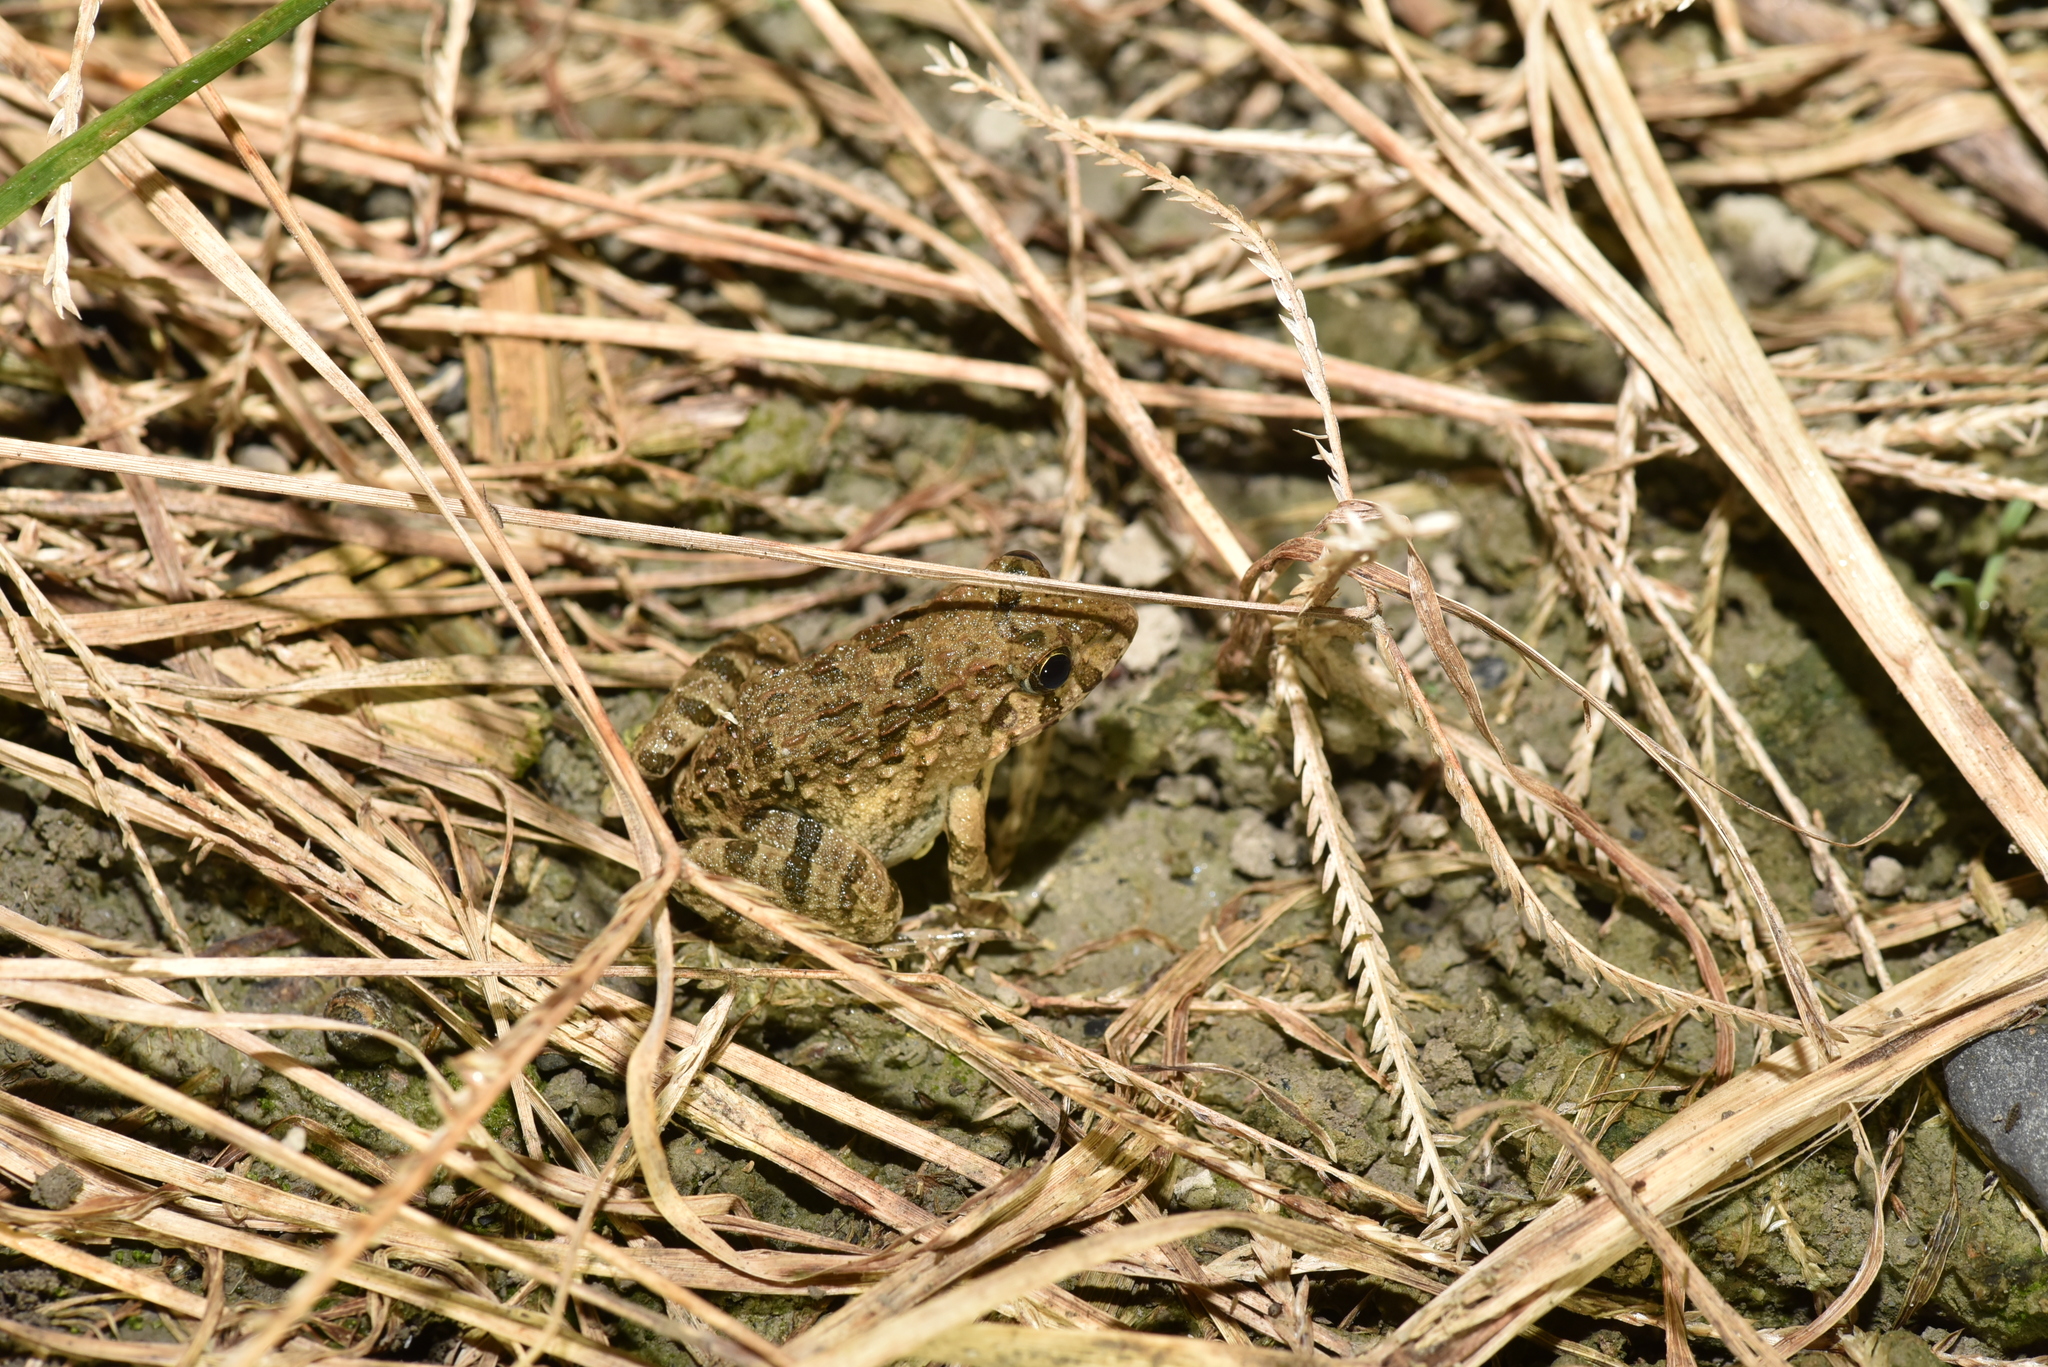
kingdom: Animalia
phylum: Chordata
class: Amphibia
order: Anura
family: Dicroglossidae
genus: Fejervarya
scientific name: Fejervarya limnocharis
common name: Asian grass frog/common pond frog/field frog/grass frog/indian rice frog
